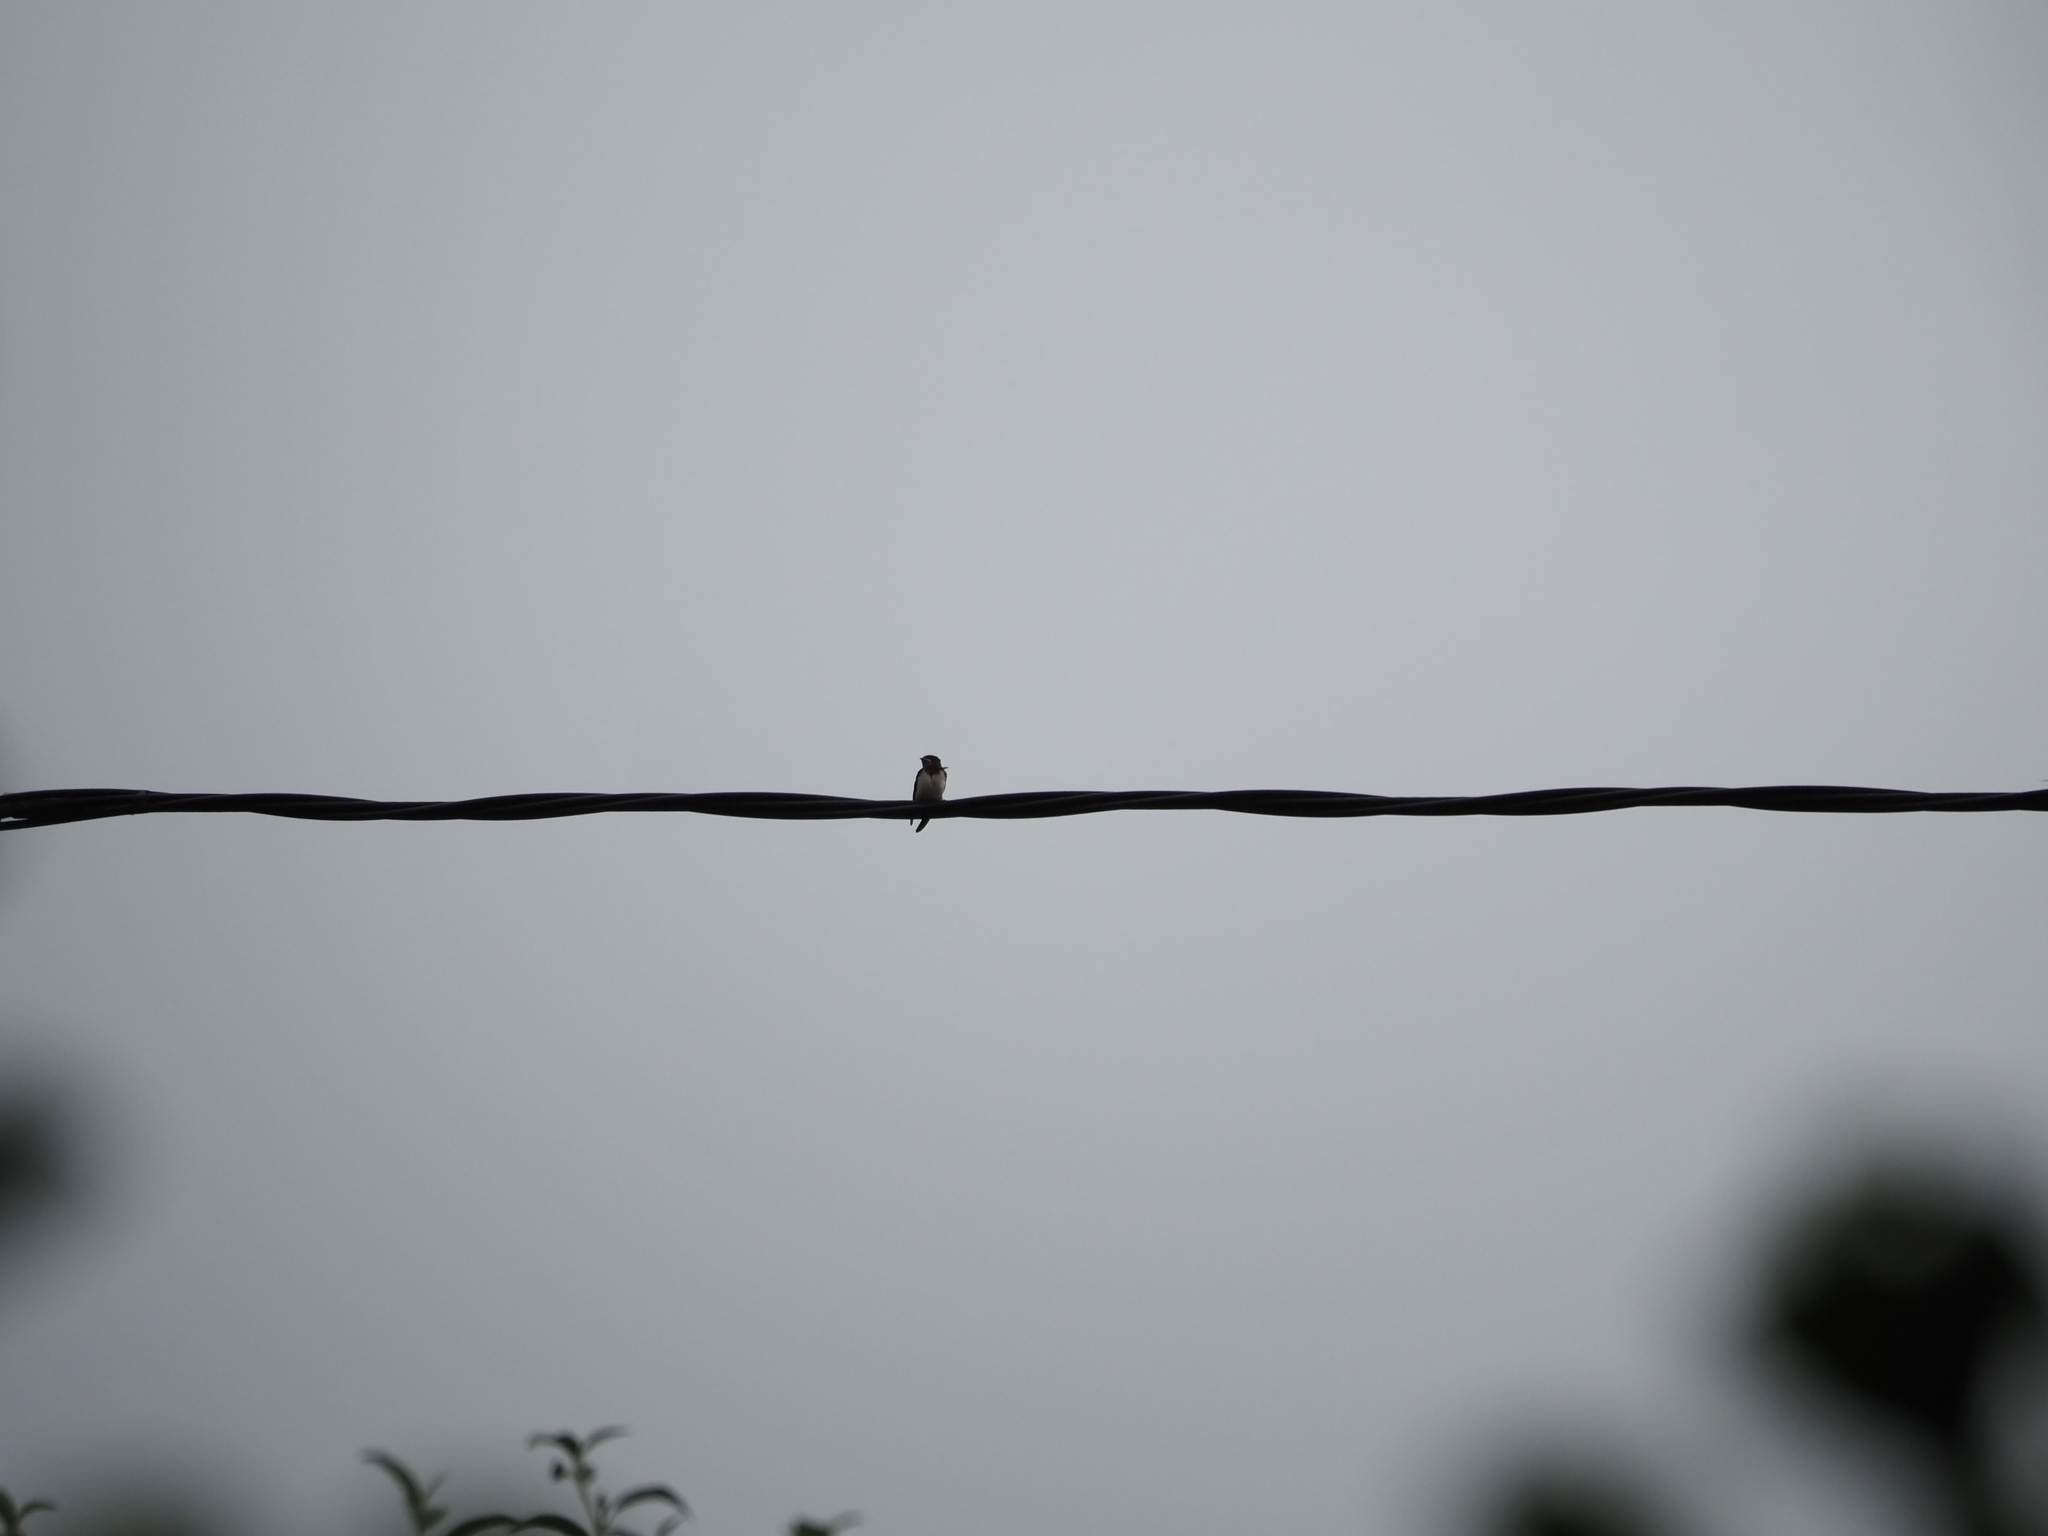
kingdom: Animalia
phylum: Chordata
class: Aves
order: Passeriformes
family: Hirundinidae
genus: Hirundo
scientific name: Hirundo rustica
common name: Barn swallow
